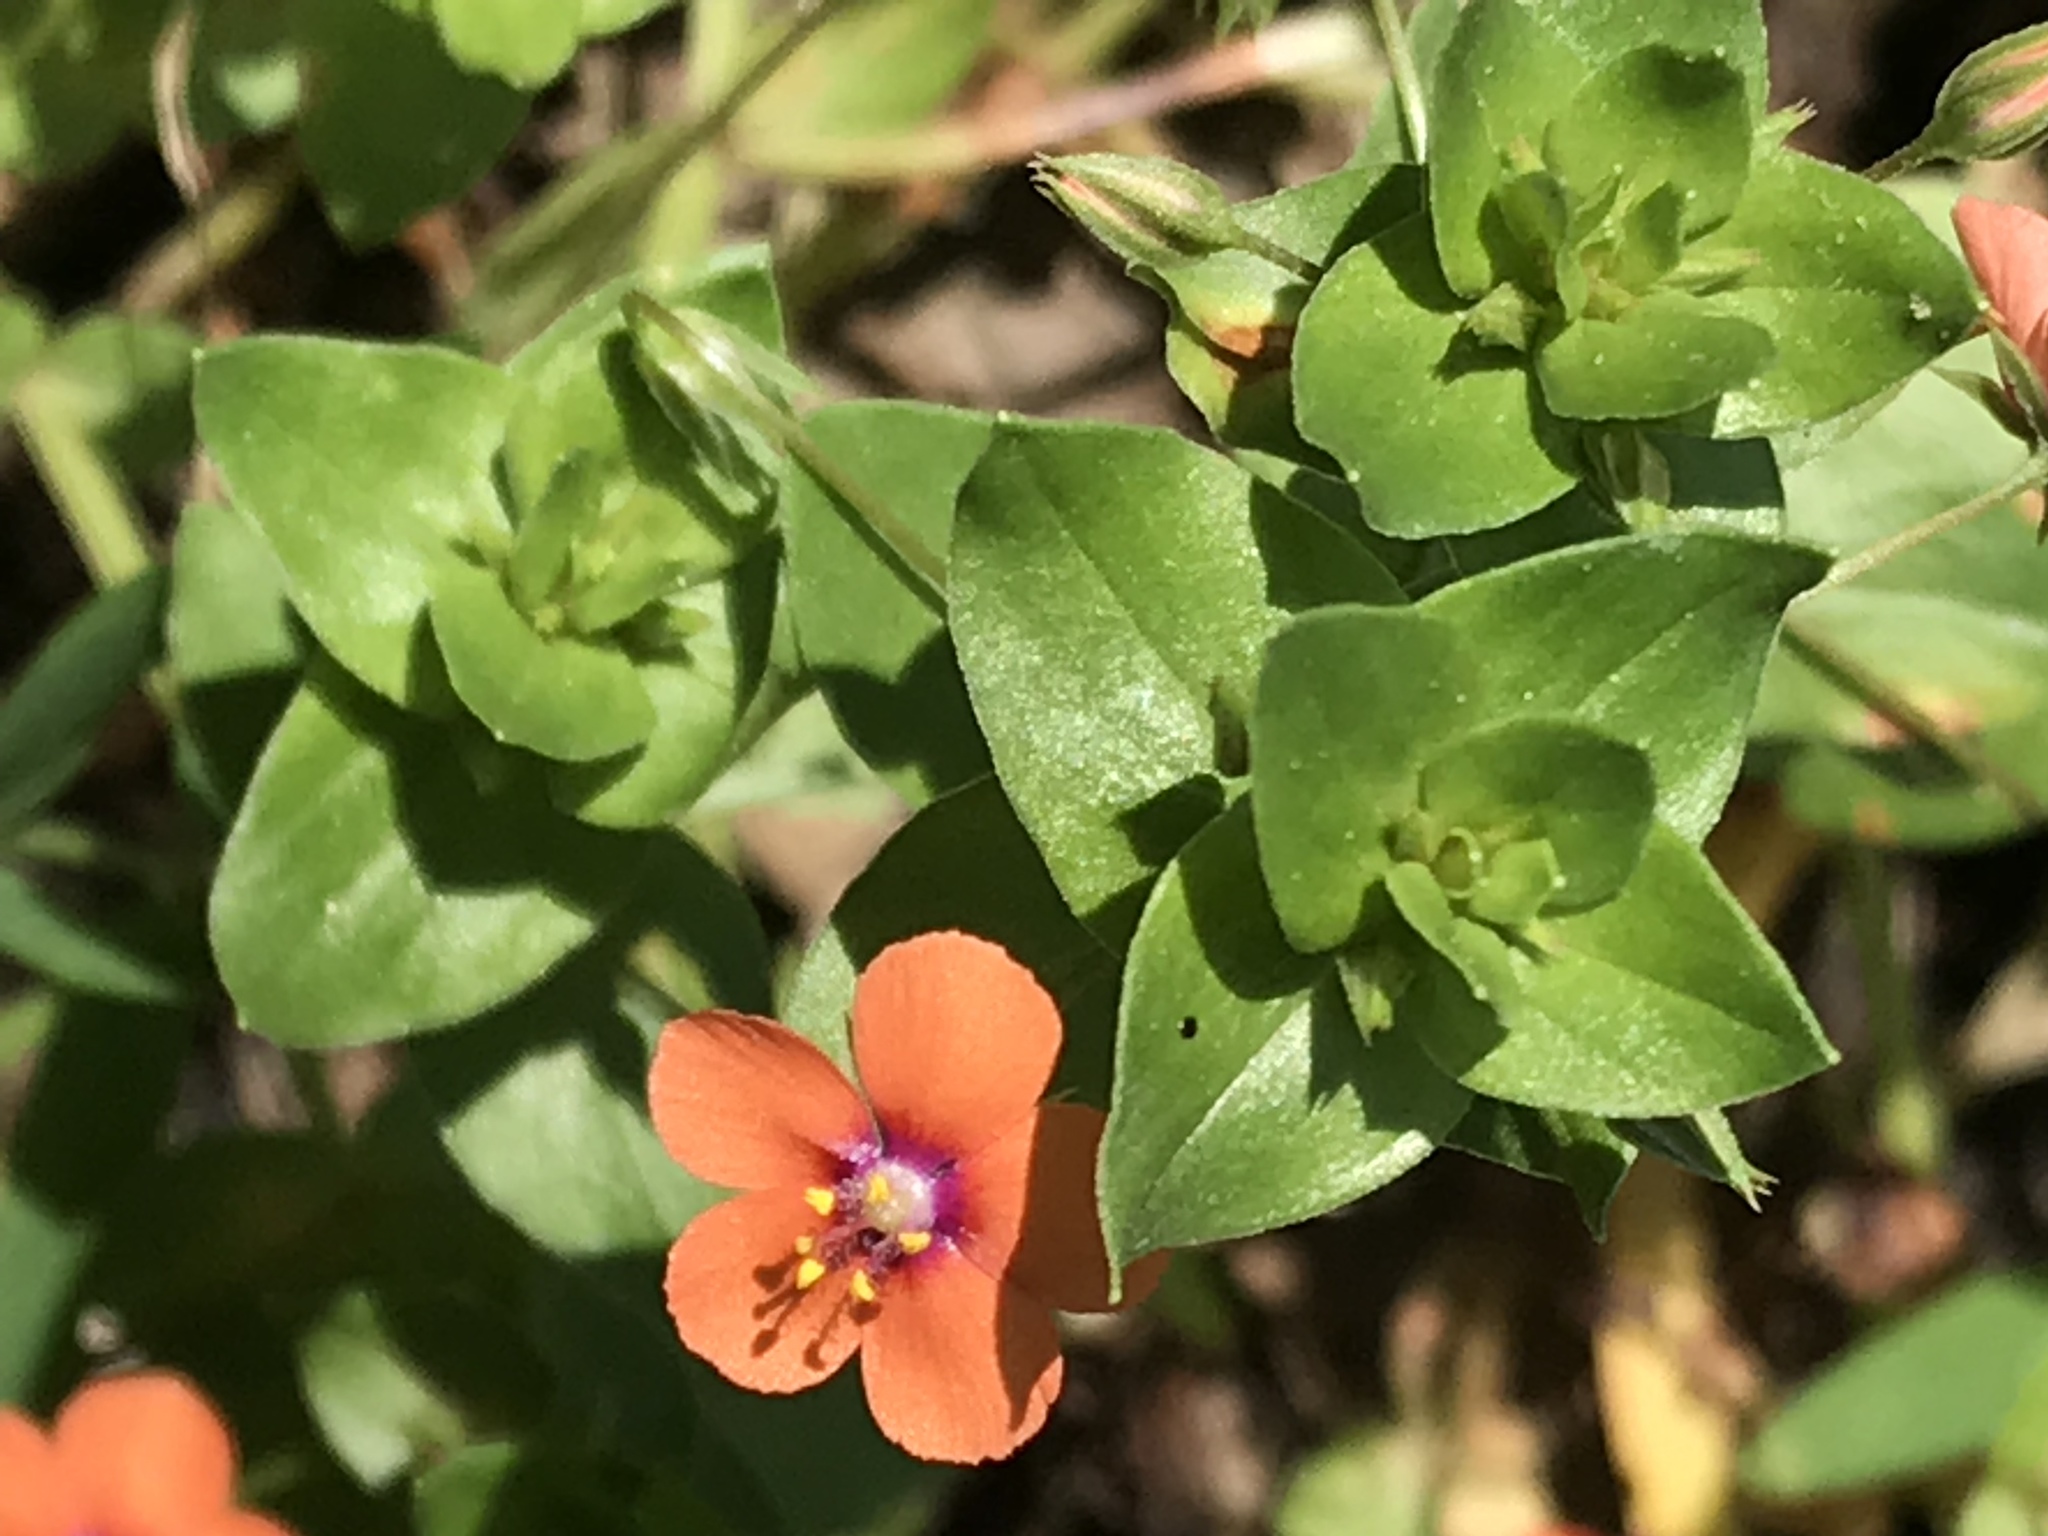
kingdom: Plantae
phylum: Tracheophyta
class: Magnoliopsida
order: Ericales
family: Primulaceae
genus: Lysimachia
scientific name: Lysimachia arvensis
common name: Scarlet pimpernel
